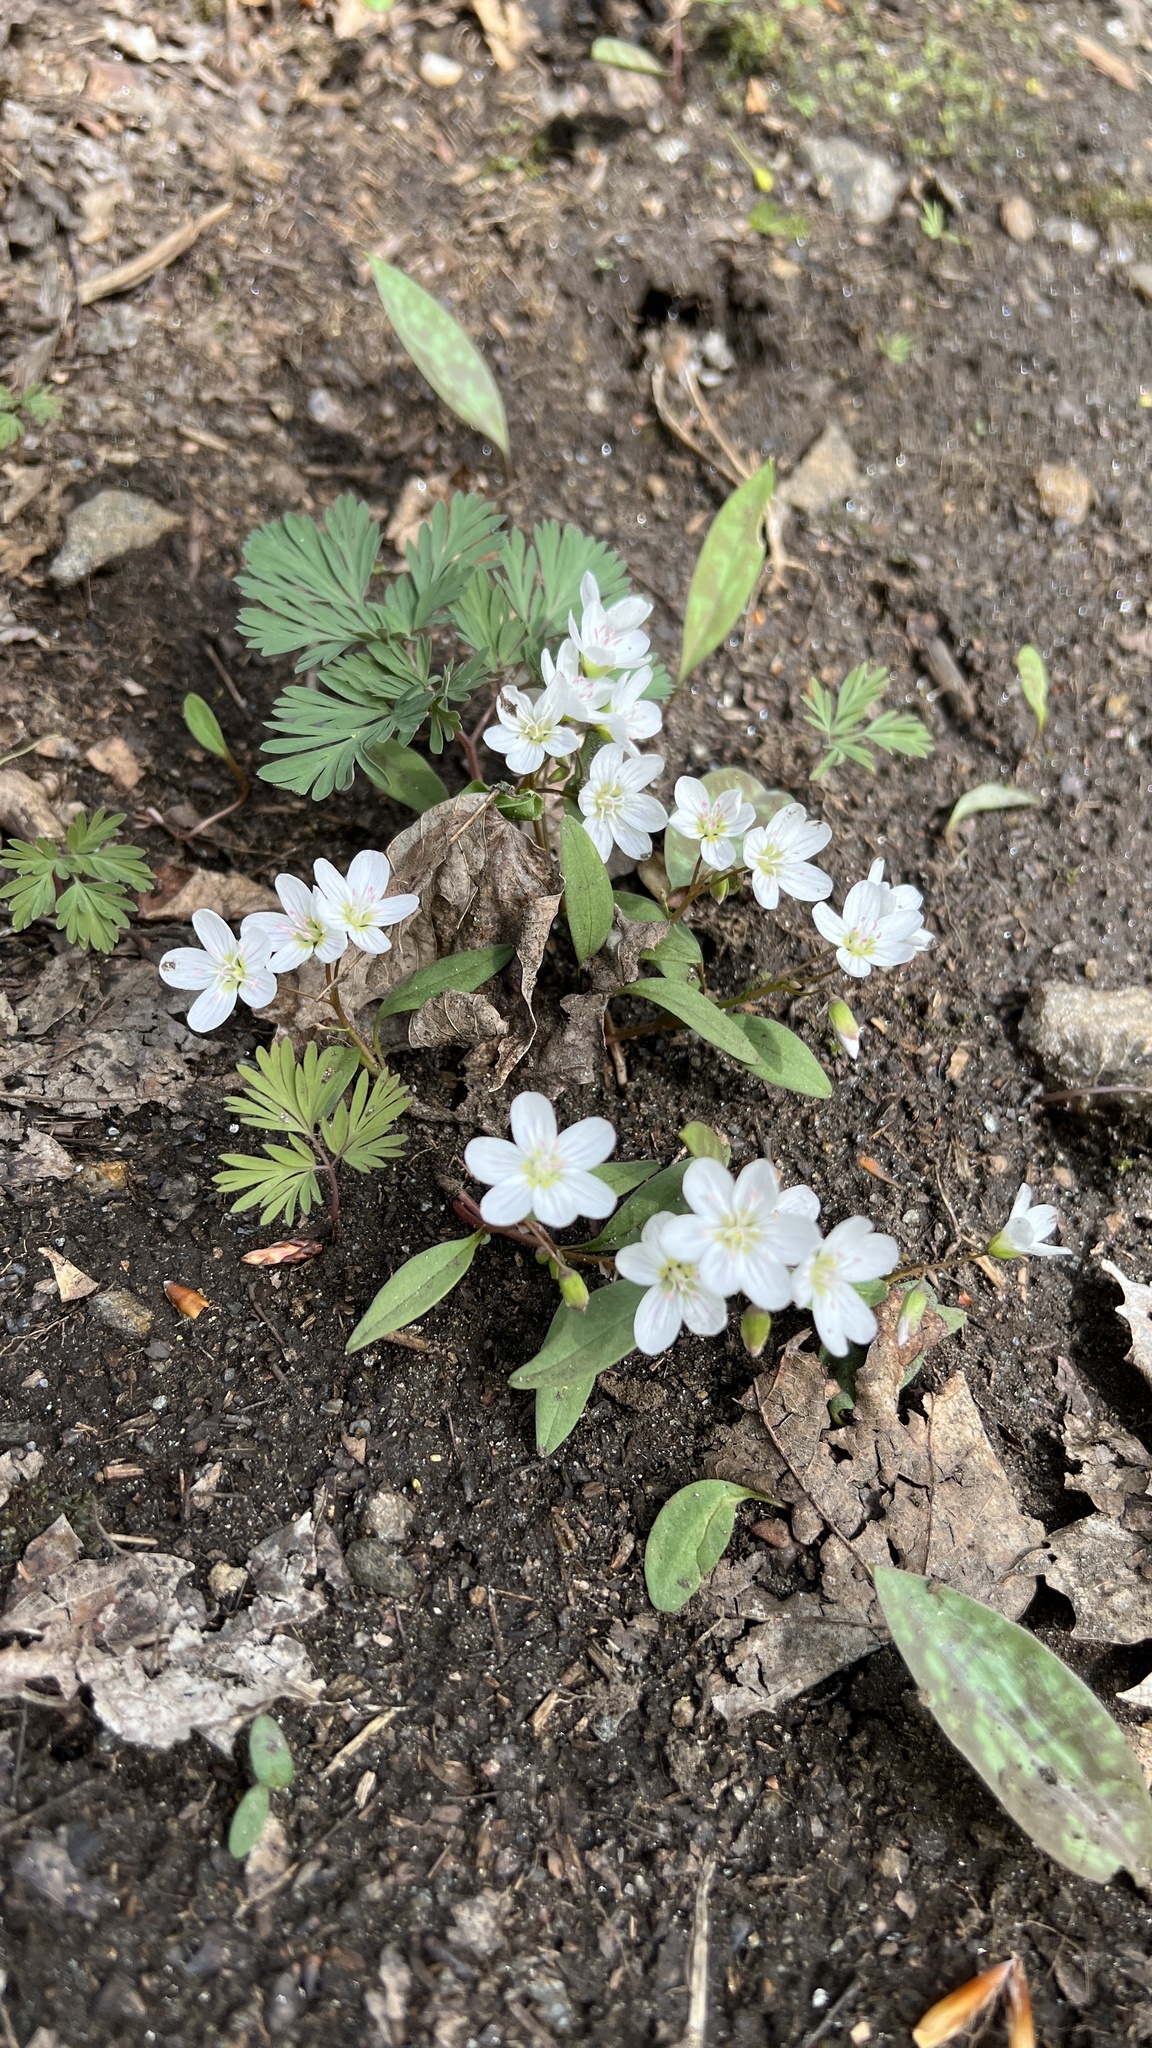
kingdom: Plantae
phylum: Tracheophyta
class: Magnoliopsida
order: Caryophyllales
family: Montiaceae
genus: Claytonia
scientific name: Claytonia caroliniana
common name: Carolina spring beauty
